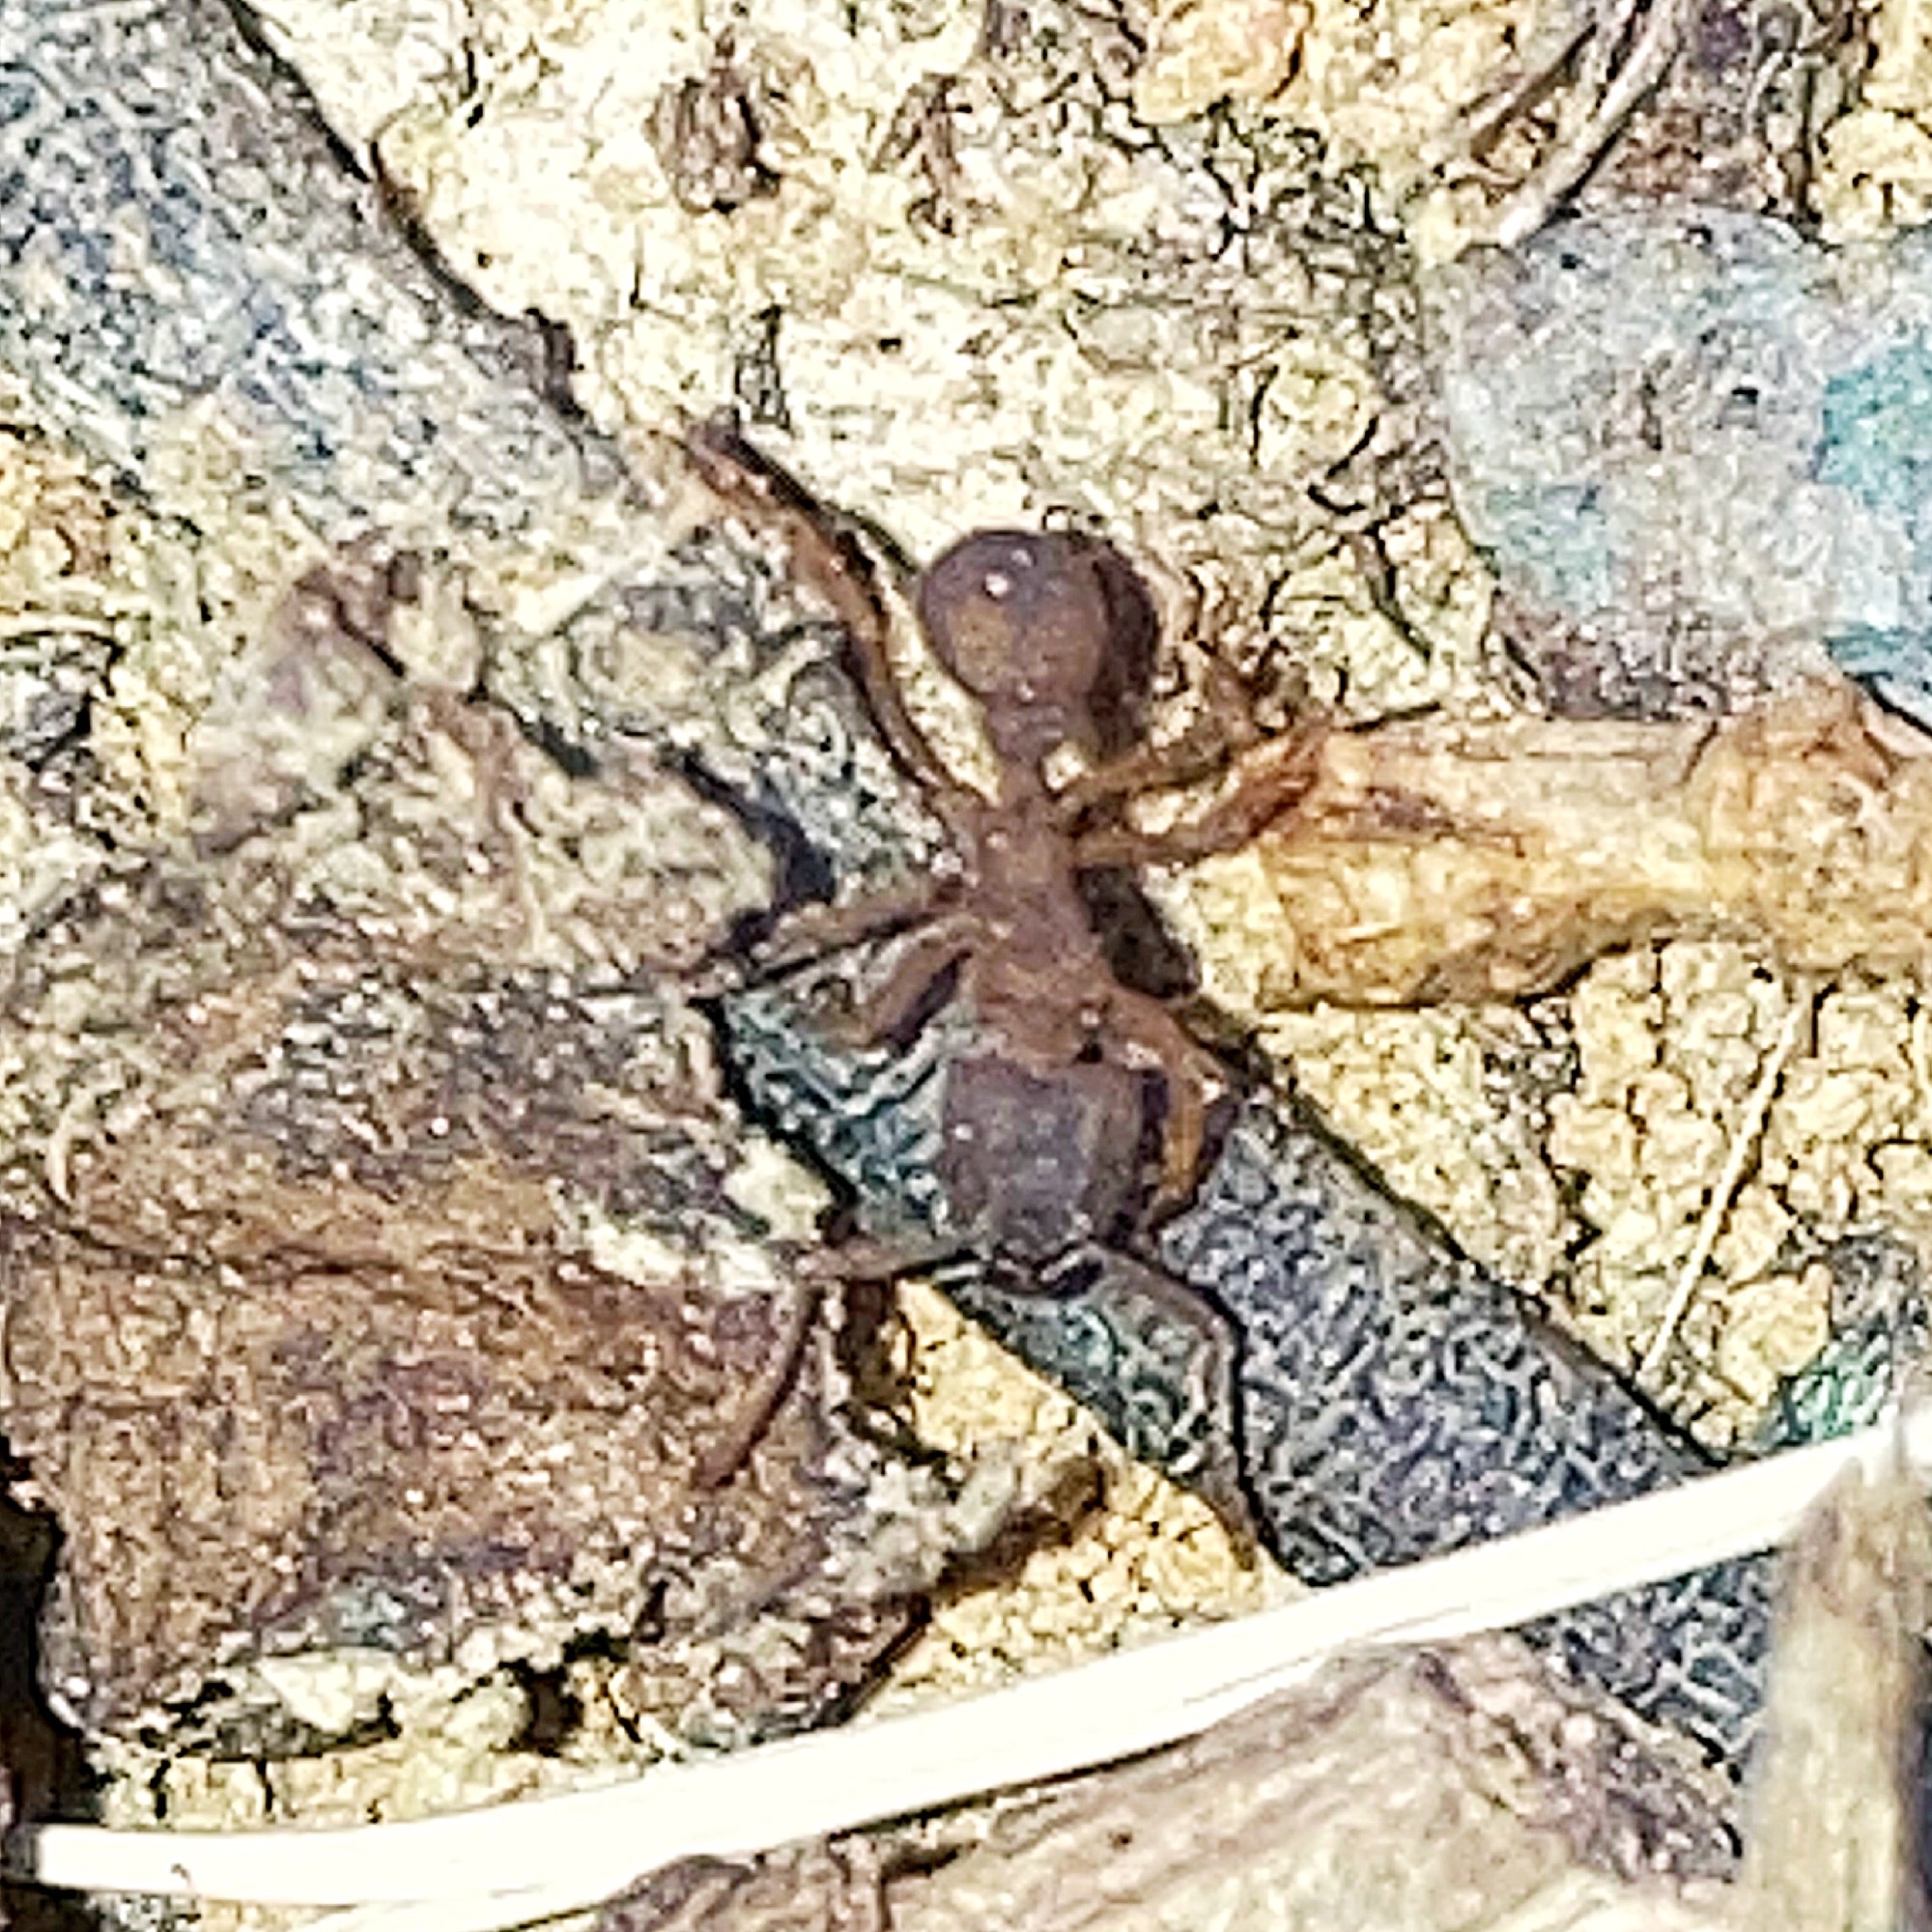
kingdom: Animalia
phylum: Arthropoda
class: Insecta
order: Hymenoptera
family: Formicidae
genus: Trachymyrmex
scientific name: Trachymyrmex septentrionalis
